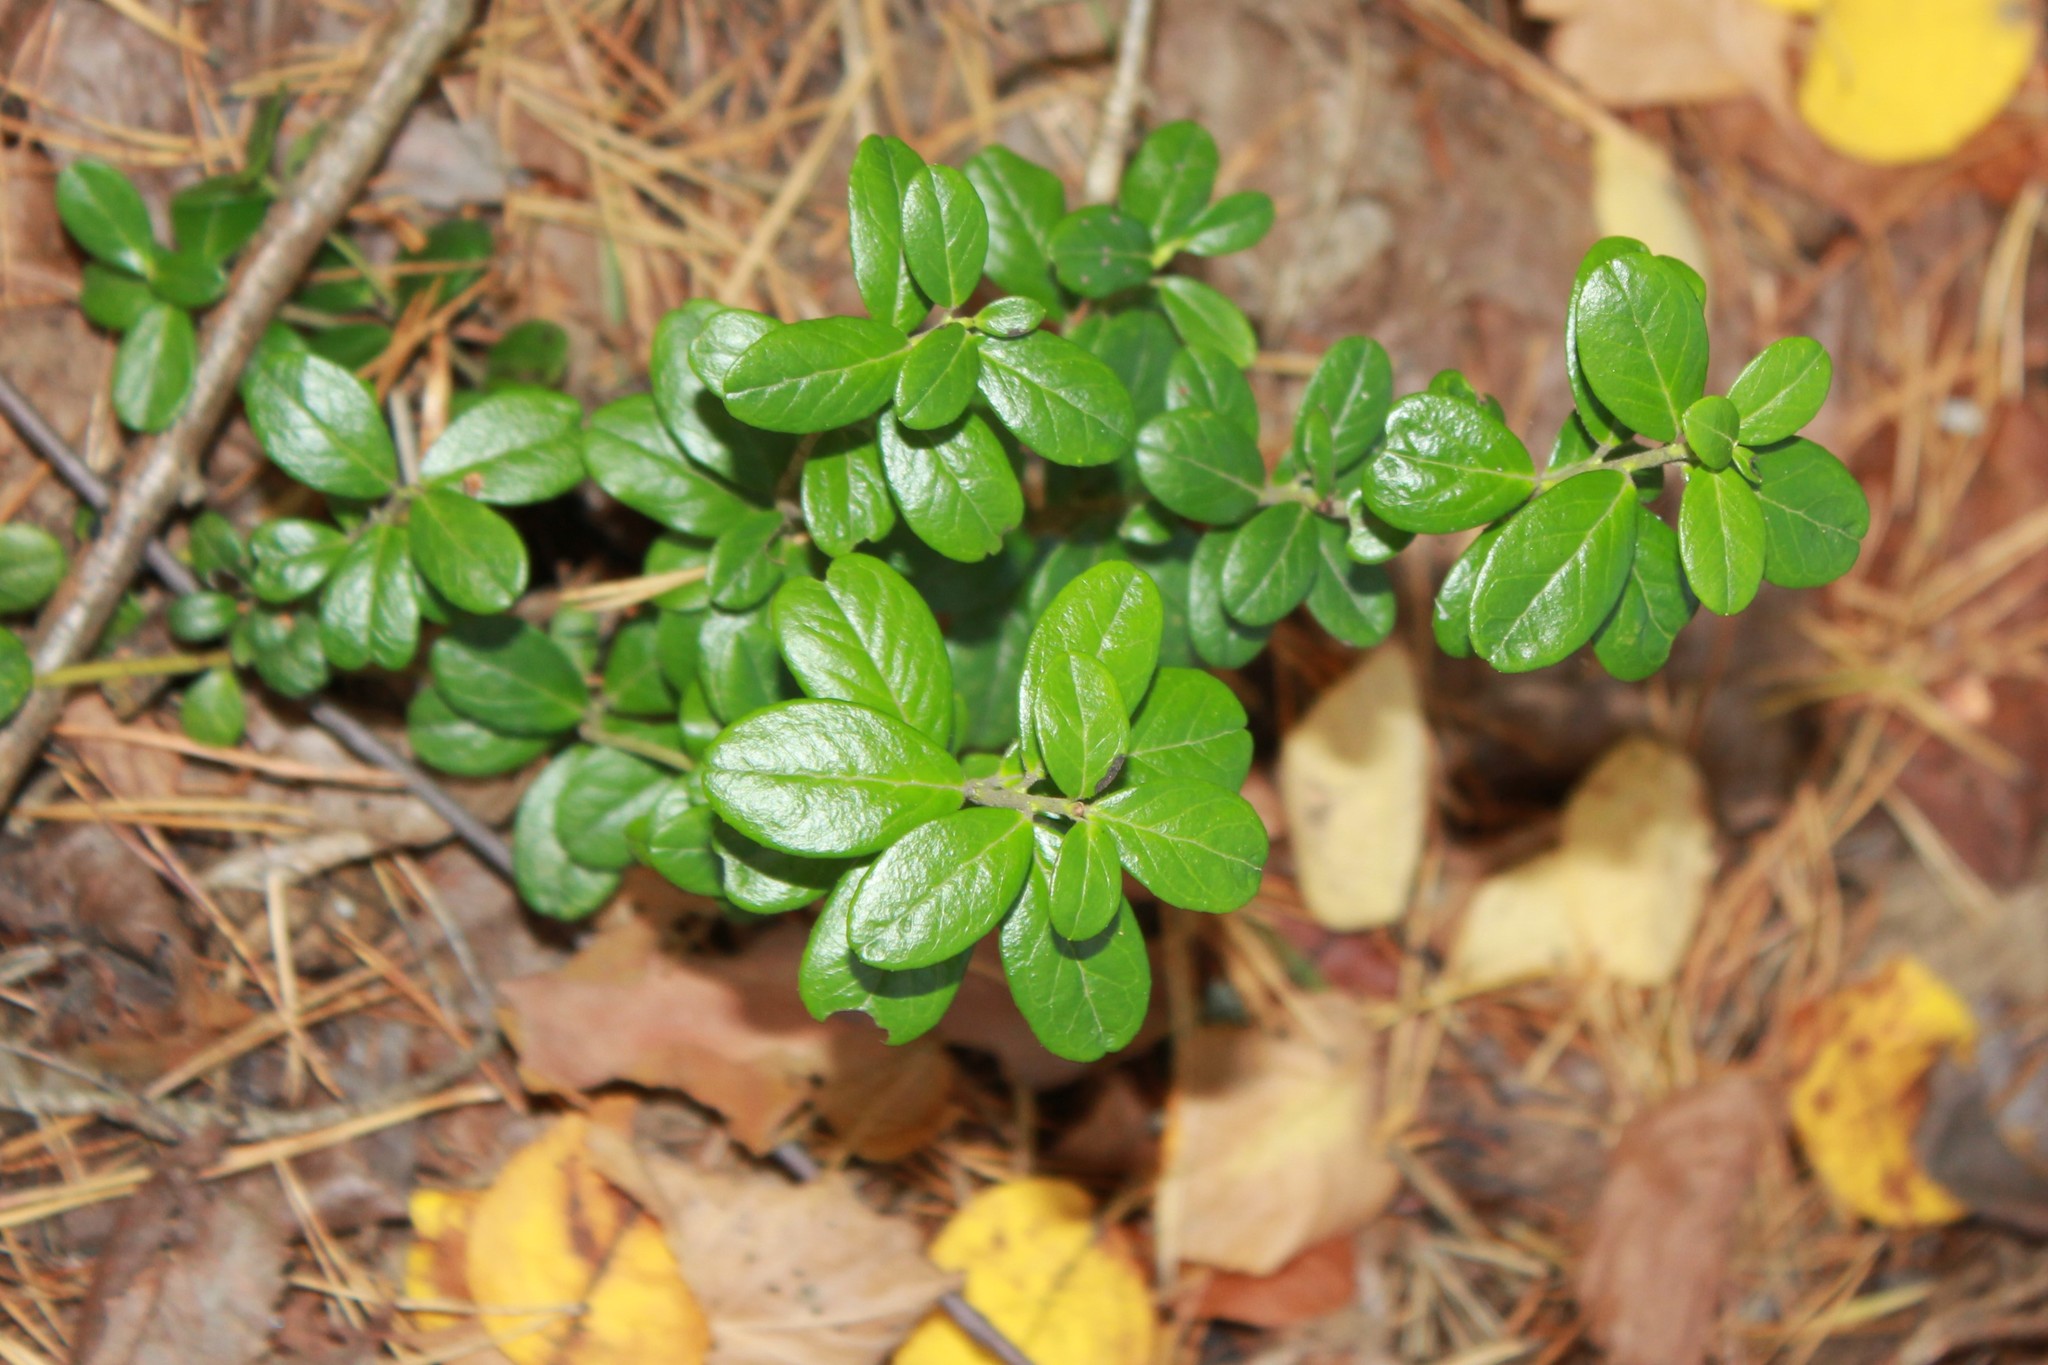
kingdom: Plantae
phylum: Tracheophyta
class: Magnoliopsida
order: Ericales
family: Ericaceae
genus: Vaccinium
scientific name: Vaccinium vitis-idaea
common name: Cowberry
